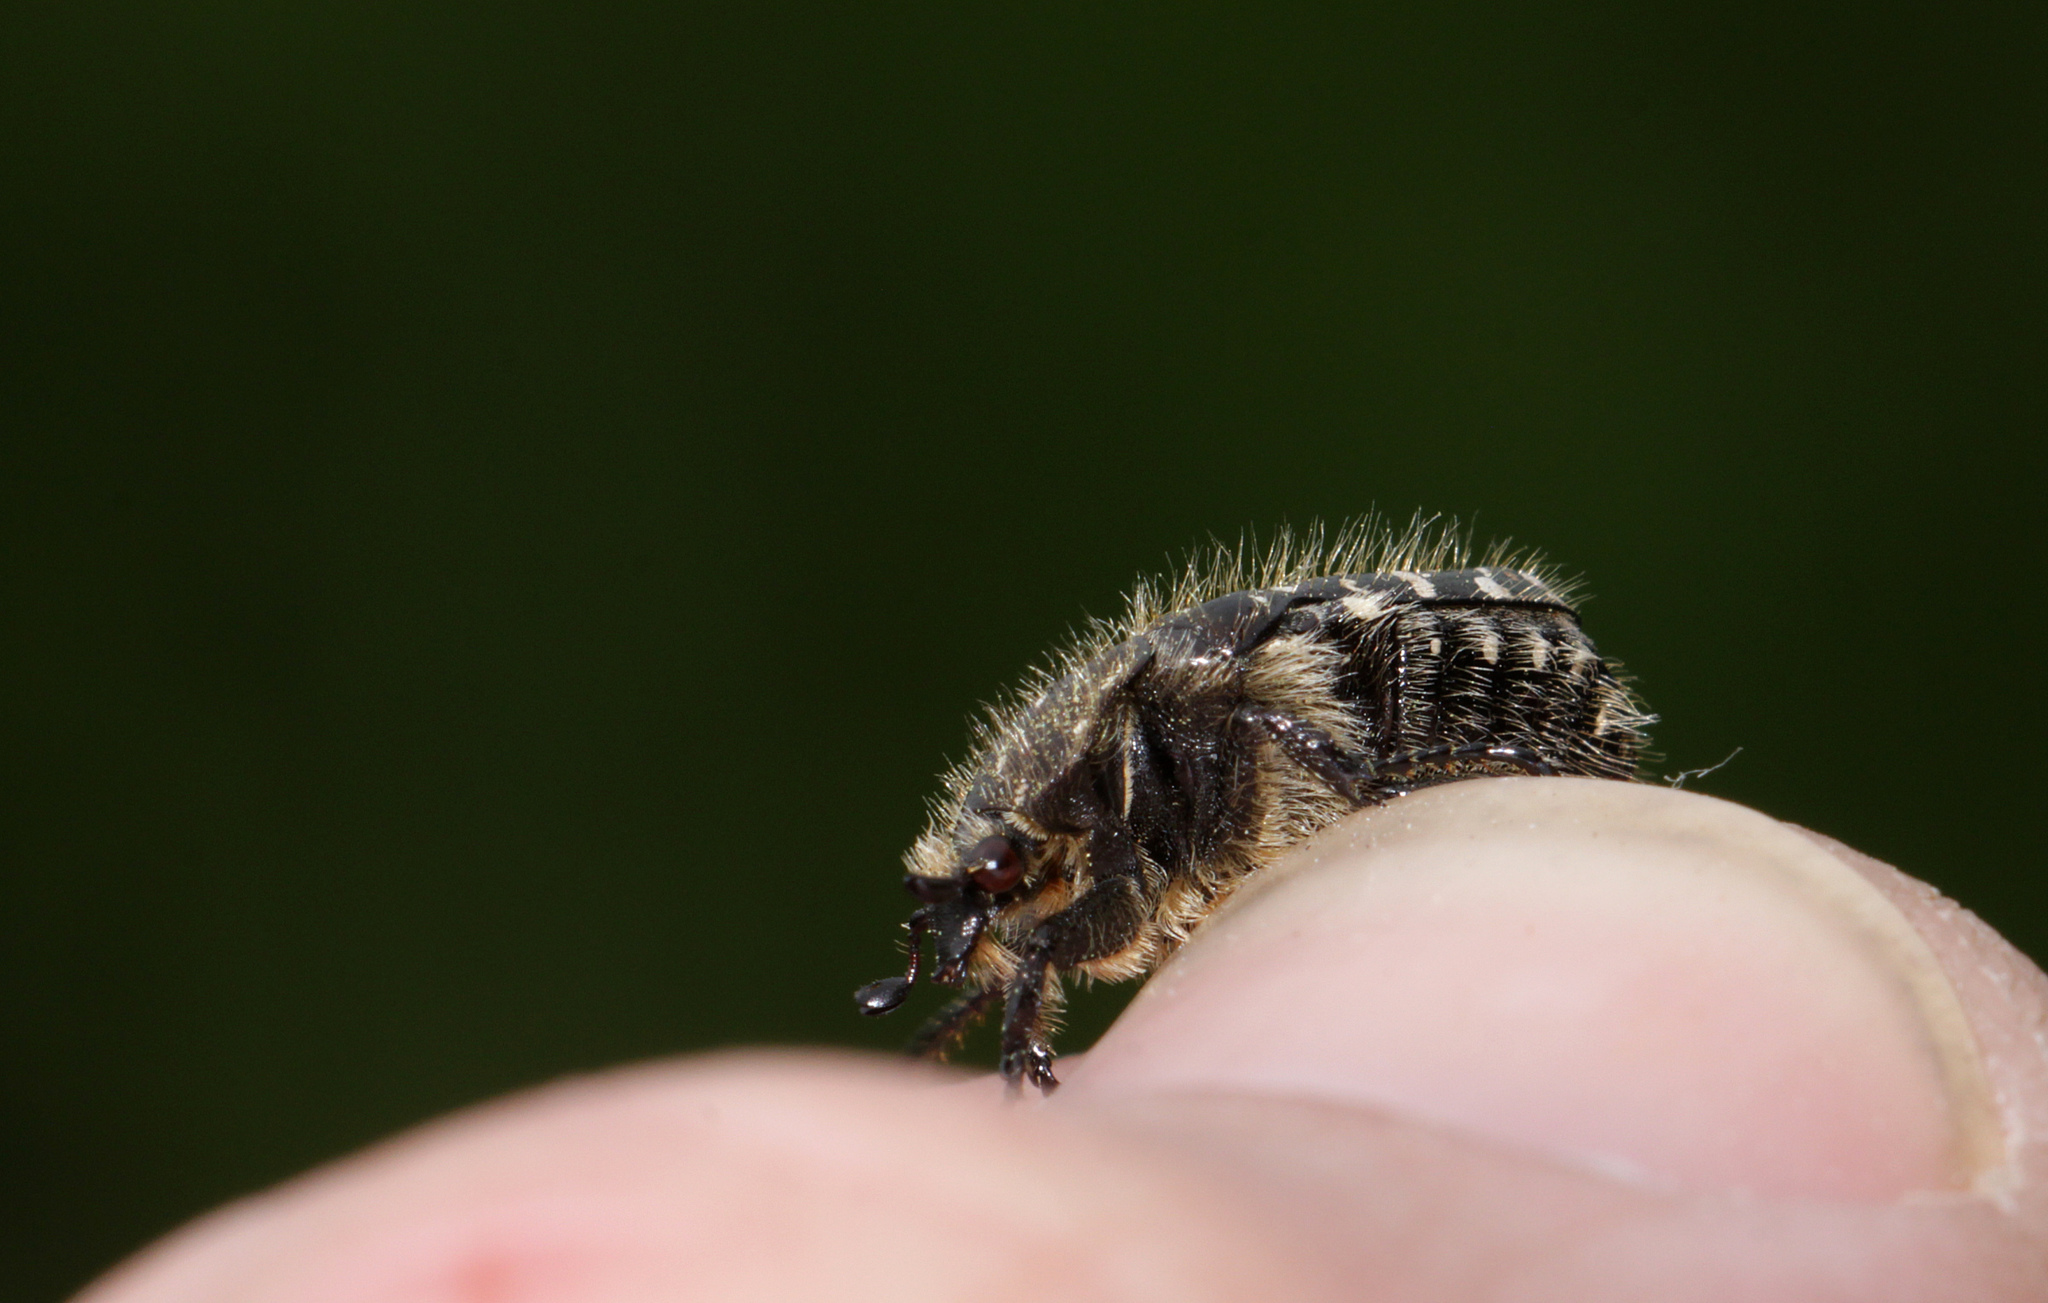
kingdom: Animalia
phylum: Arthropoda
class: Insecta
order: Coleoptera
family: Scarabaeidae
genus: Oxythyrea
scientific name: Oxythyrea funesta
